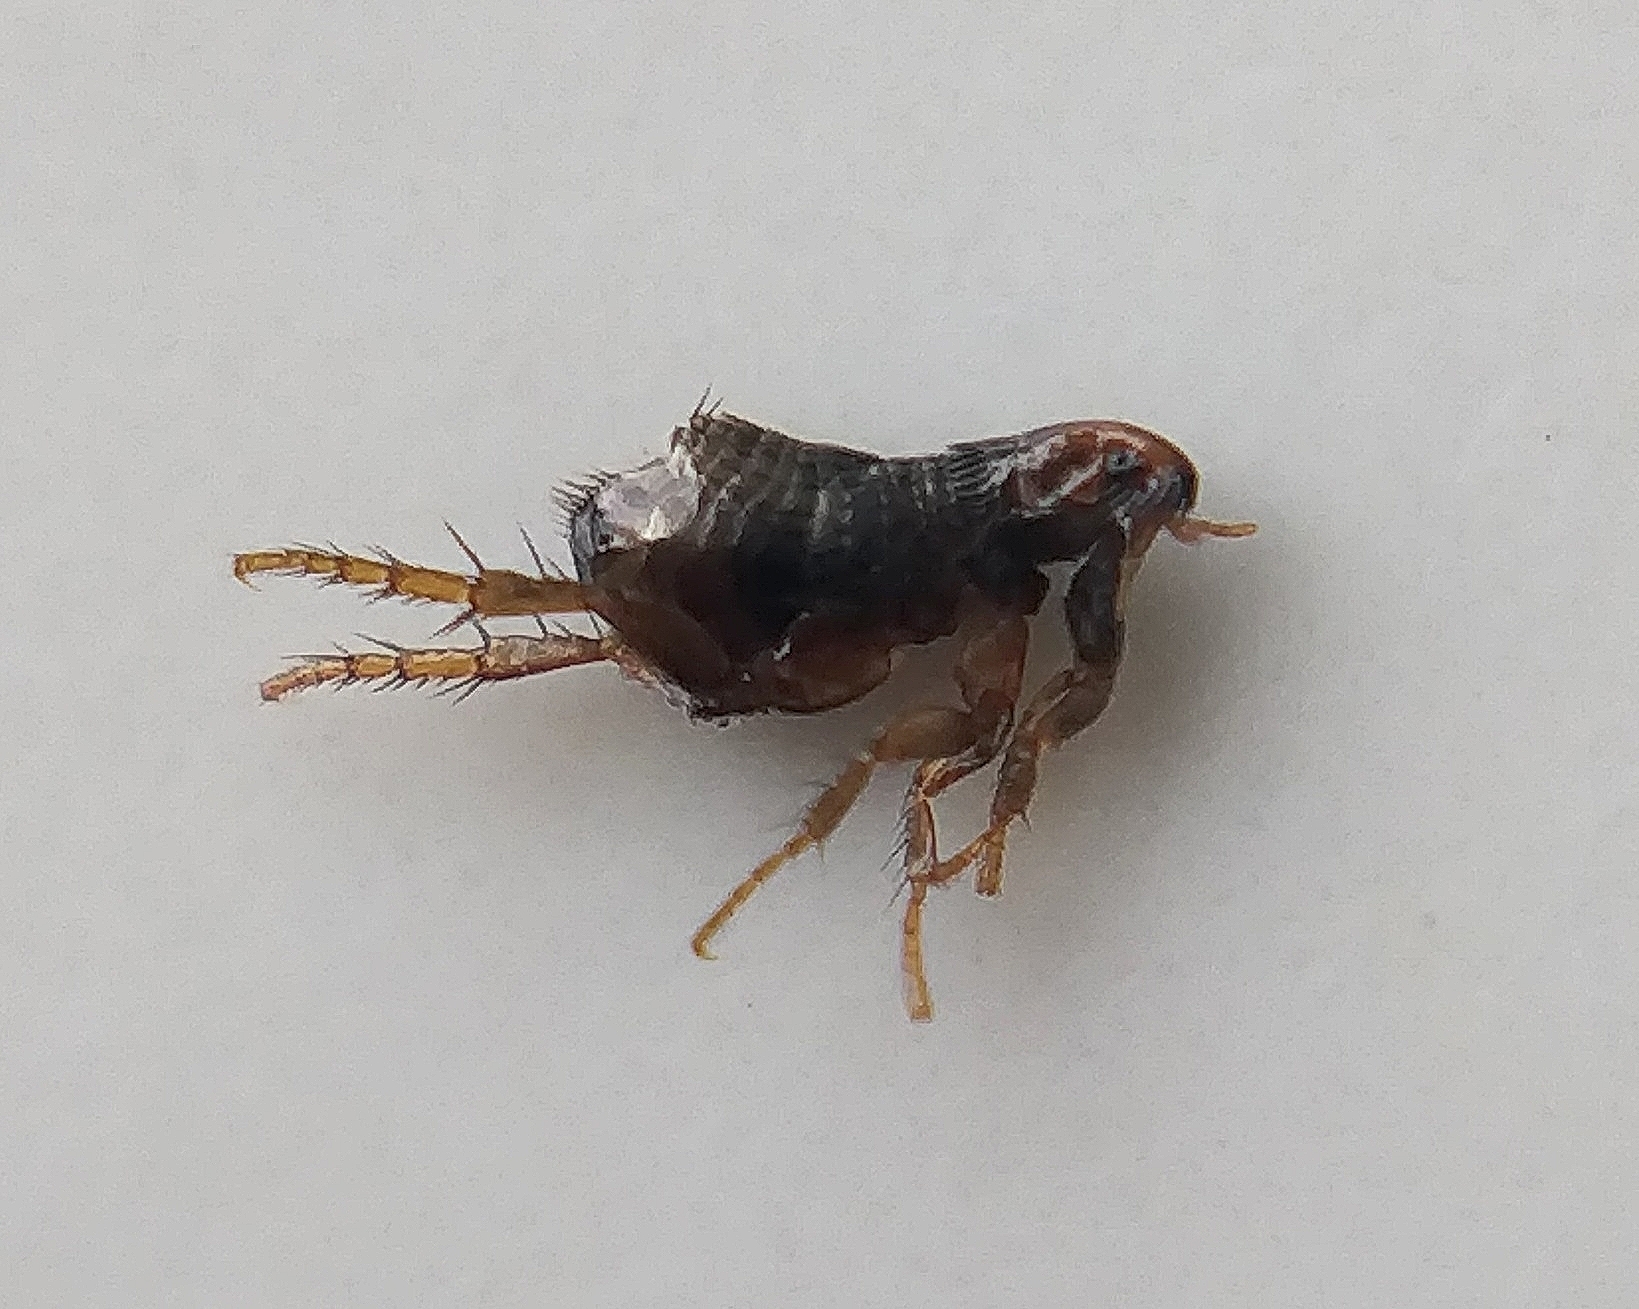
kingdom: Animalia
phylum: Arthropoda
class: Insecta
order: Siphonaptera
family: Pulicidae
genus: Ctenocephalides
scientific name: Ctenocephalides felis
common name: Cat flea
